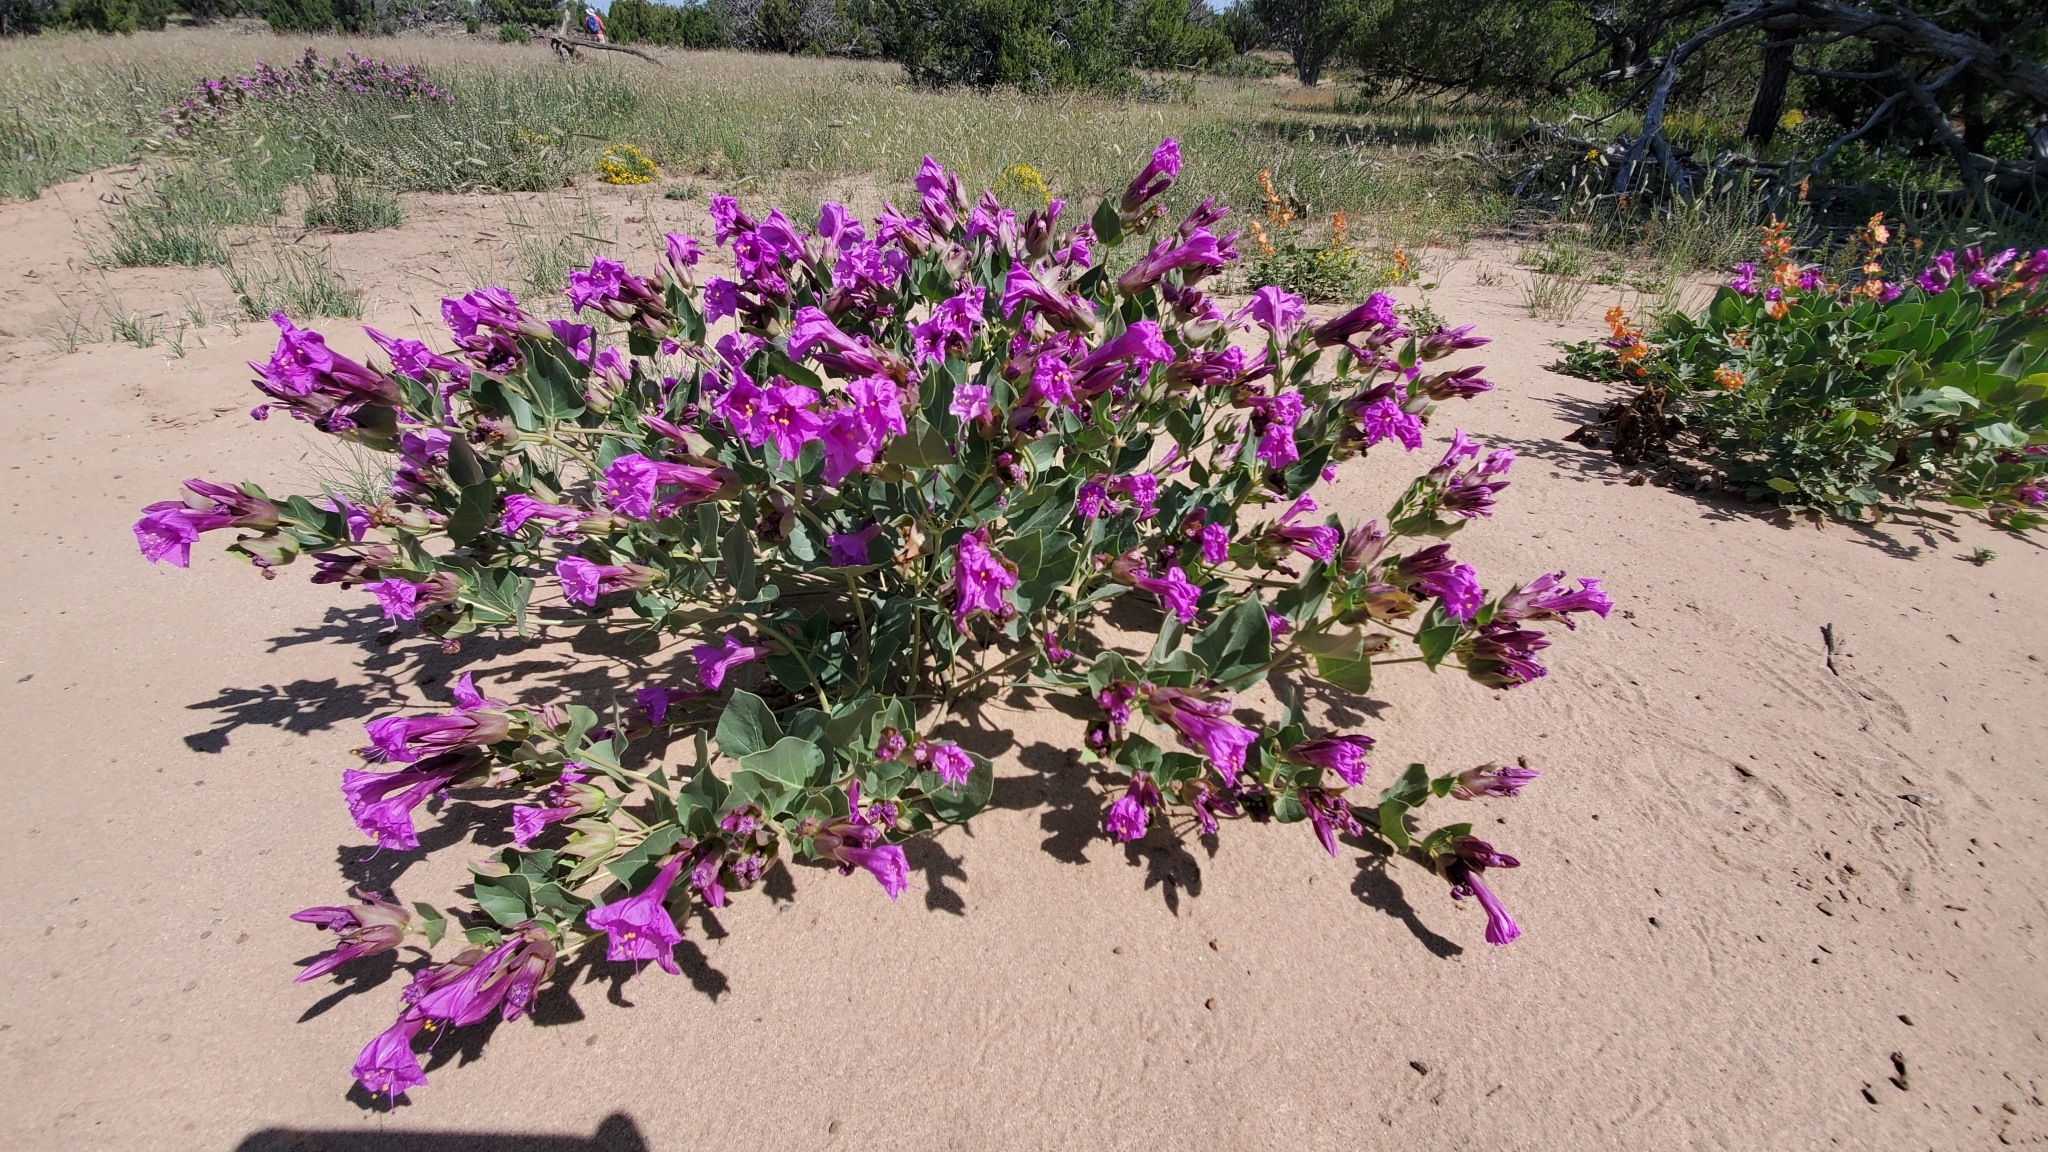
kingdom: Plantae
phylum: Tracheophyta
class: Magnoliopsida
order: Caryophyllales
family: Nyctaginaceae
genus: Mirabilis
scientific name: Mirabilis multiflora
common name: Froebel's four-o'clock
